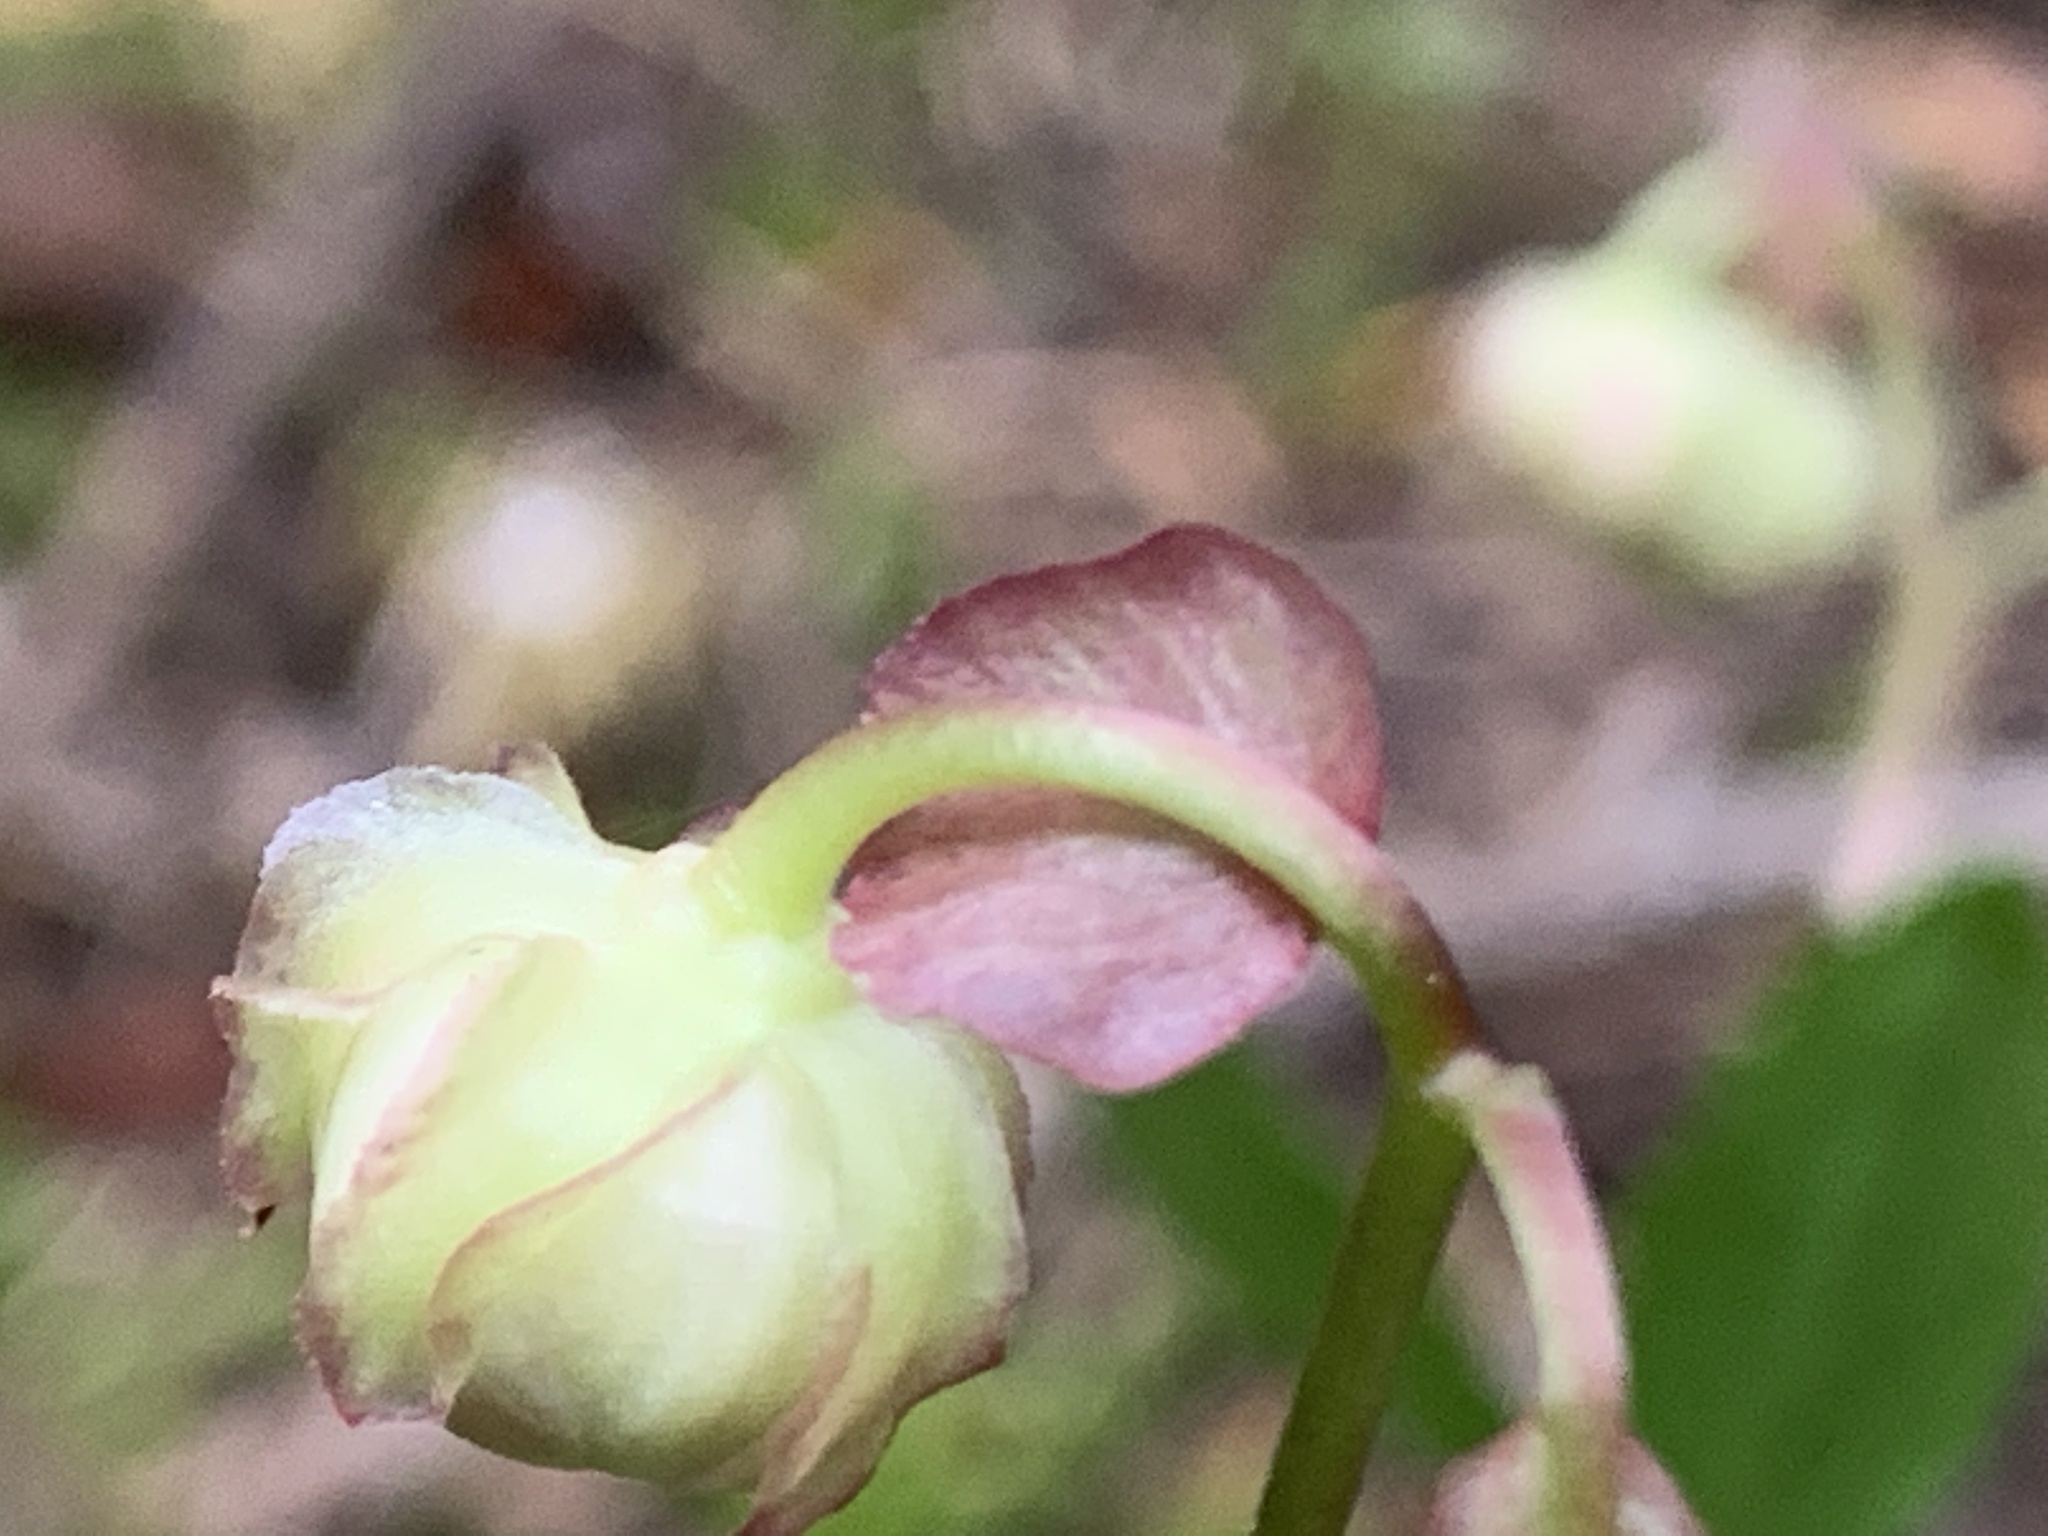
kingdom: Plantae
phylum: Tracheophyta
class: Magnoliopsida
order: Ericales
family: Ericaceae
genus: Chimaphila
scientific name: Chimaphila menziesii
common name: Menzies' pipsissewa
